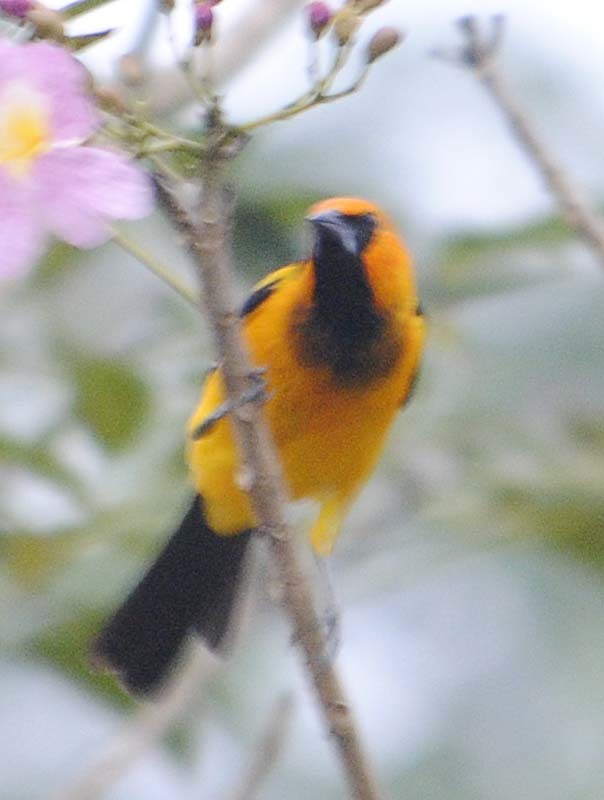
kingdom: Animalia
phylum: Chordata
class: Aves
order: Passeriformes
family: Icteridae
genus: Icterus
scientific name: Icterus gularis
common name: Altamira oriole
